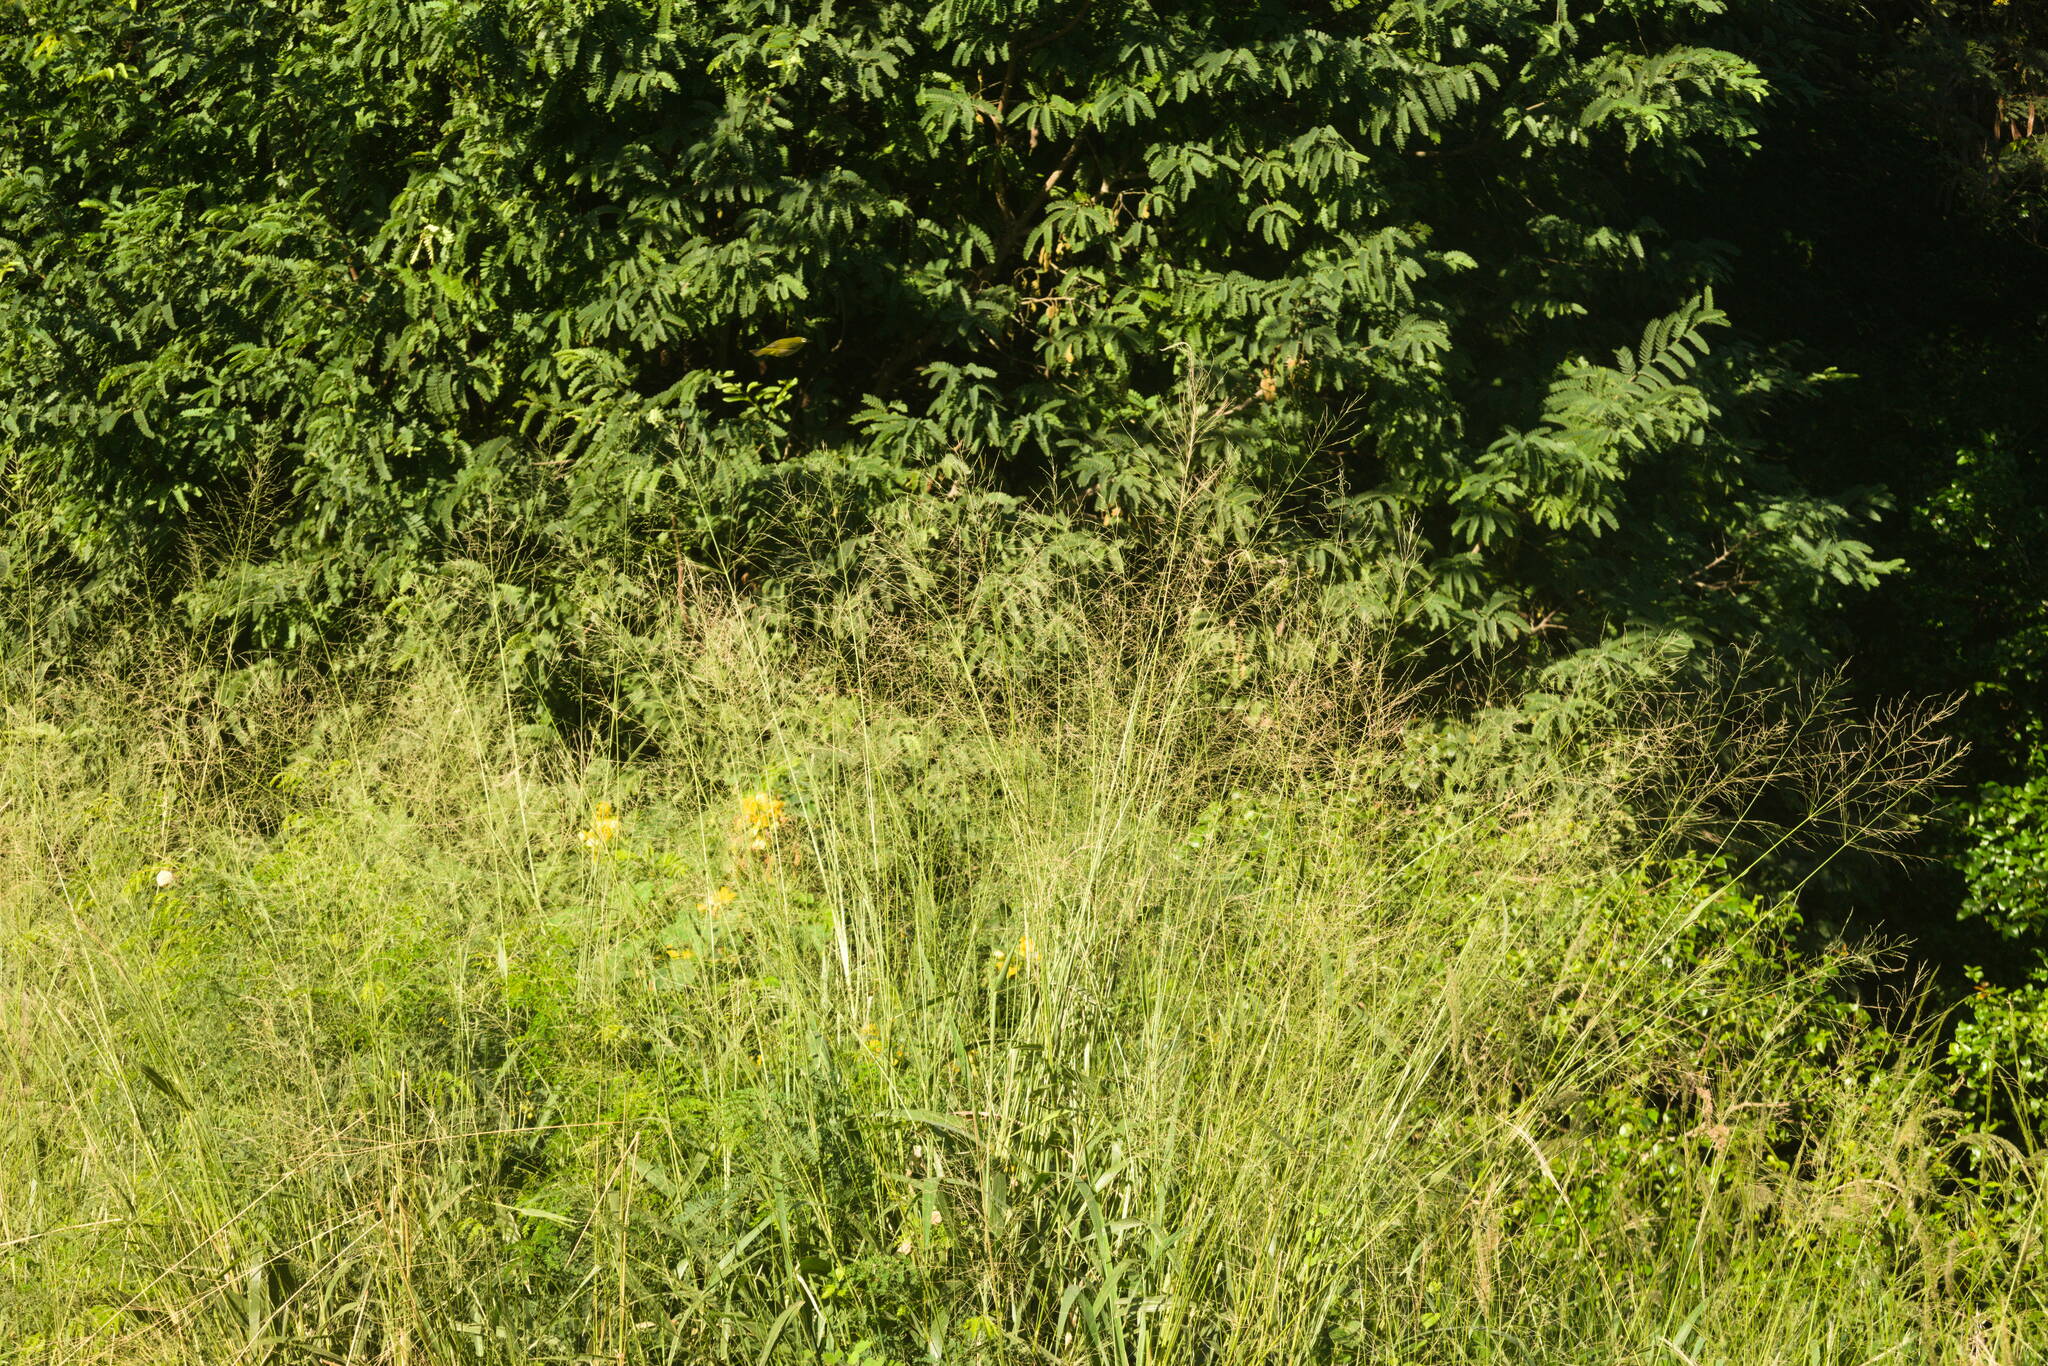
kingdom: Plantae
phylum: Tracheophyta
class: Liliopsida
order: Poales
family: Poaceae
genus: Megathyrsus
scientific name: Megathyrsus maximus
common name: Guineagrass
